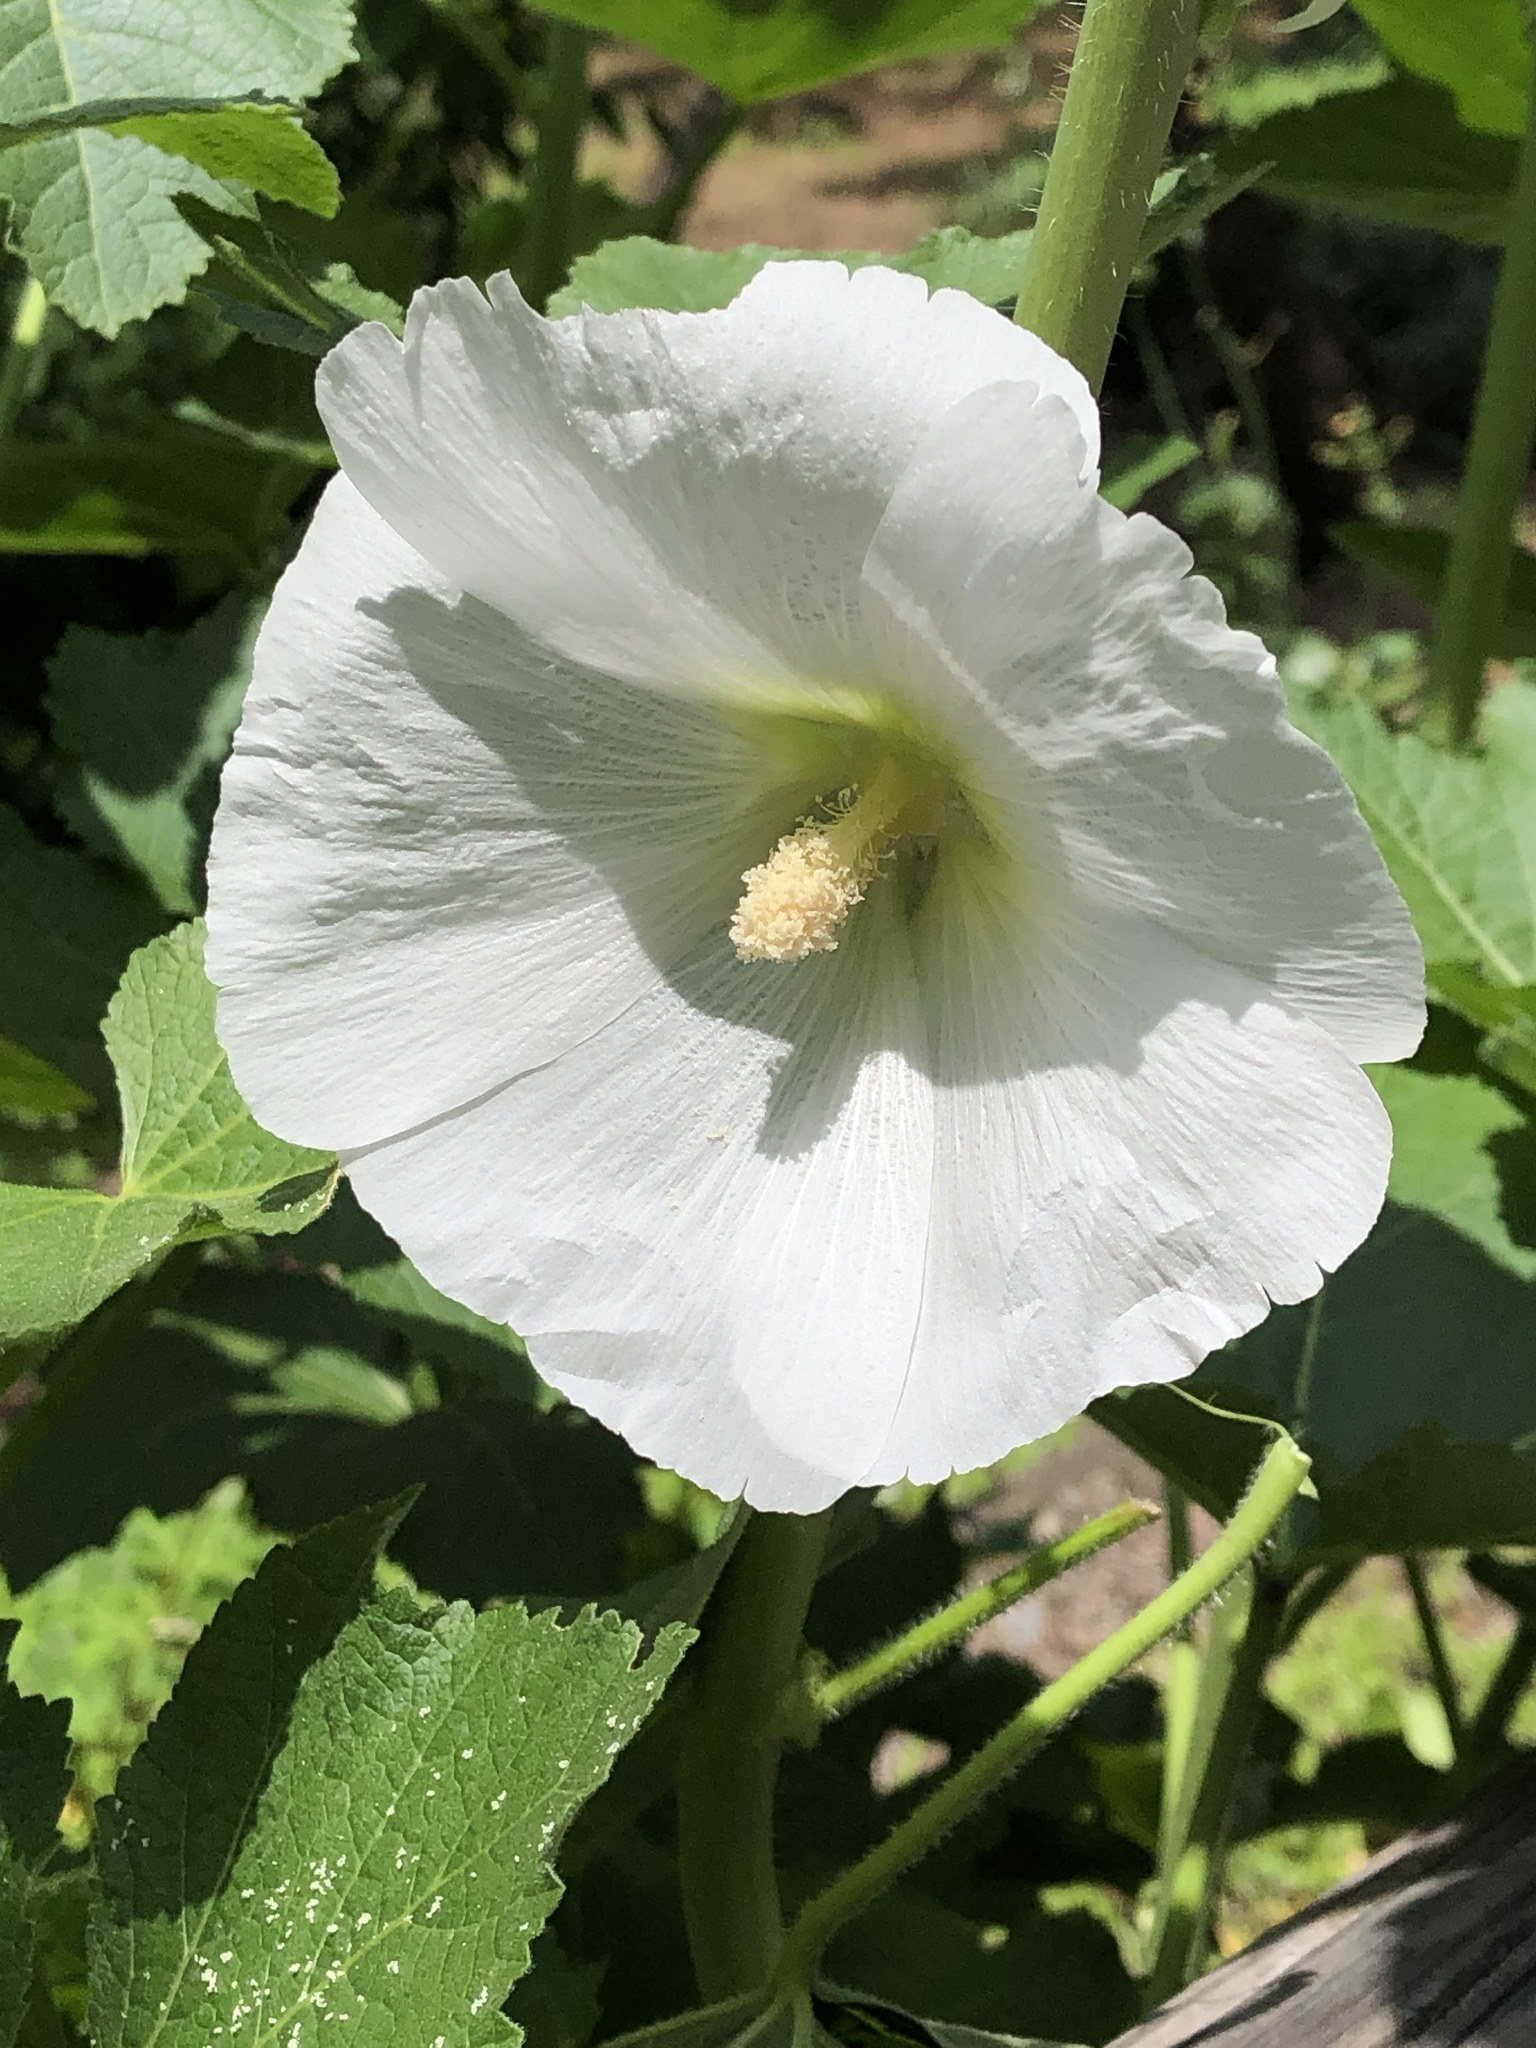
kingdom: Plantae
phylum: Tracheophyta
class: Magnoliopsida
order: Malvales
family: Malvaceae
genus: Alcea
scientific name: Alcea rosea
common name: Hollyhock
